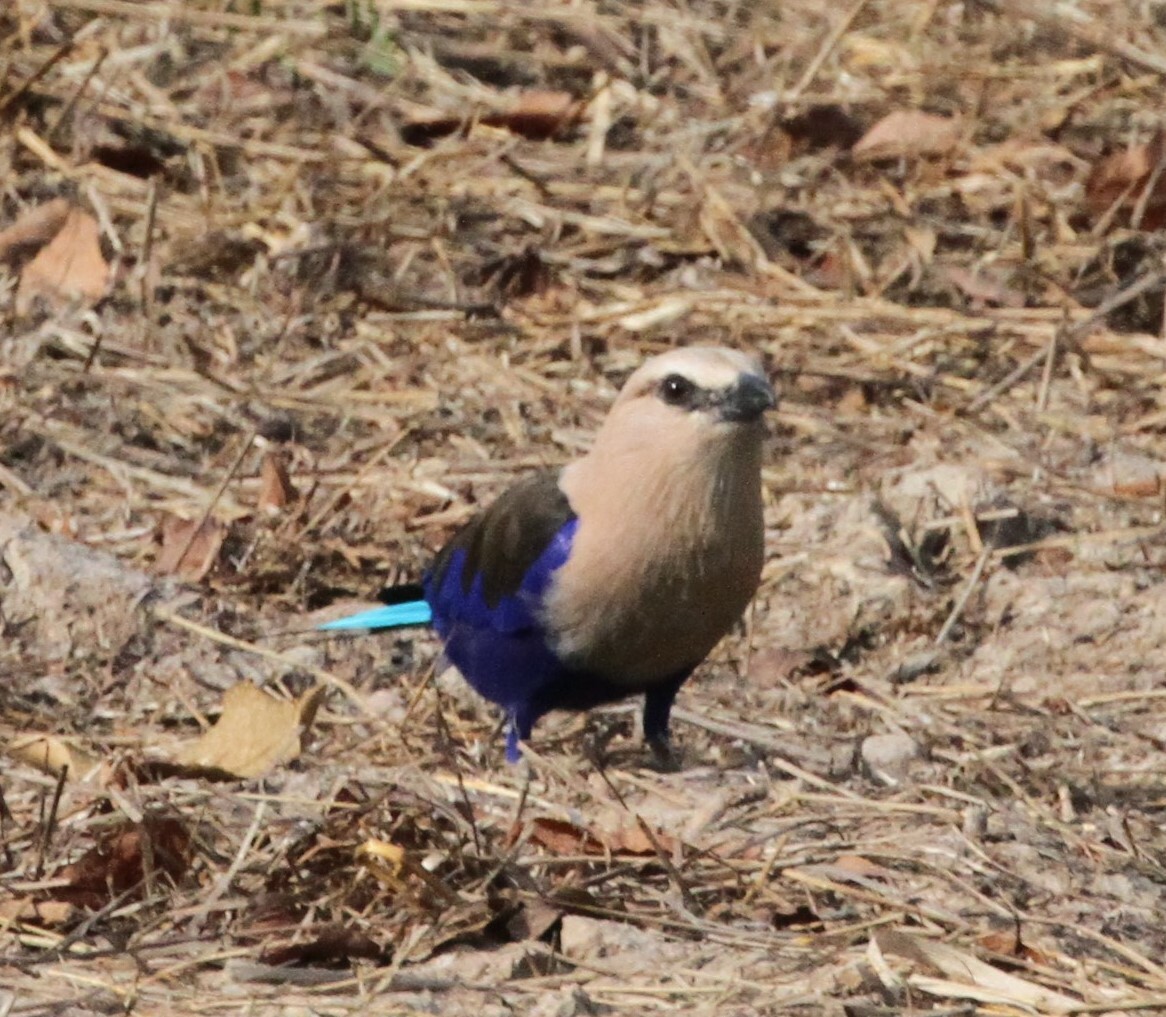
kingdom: Animalia
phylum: Chordata
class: Aves
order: Coraciiformes
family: Coraciidae
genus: Coracias
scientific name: Coracias cyanogaster
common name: Blue-bellied roller
